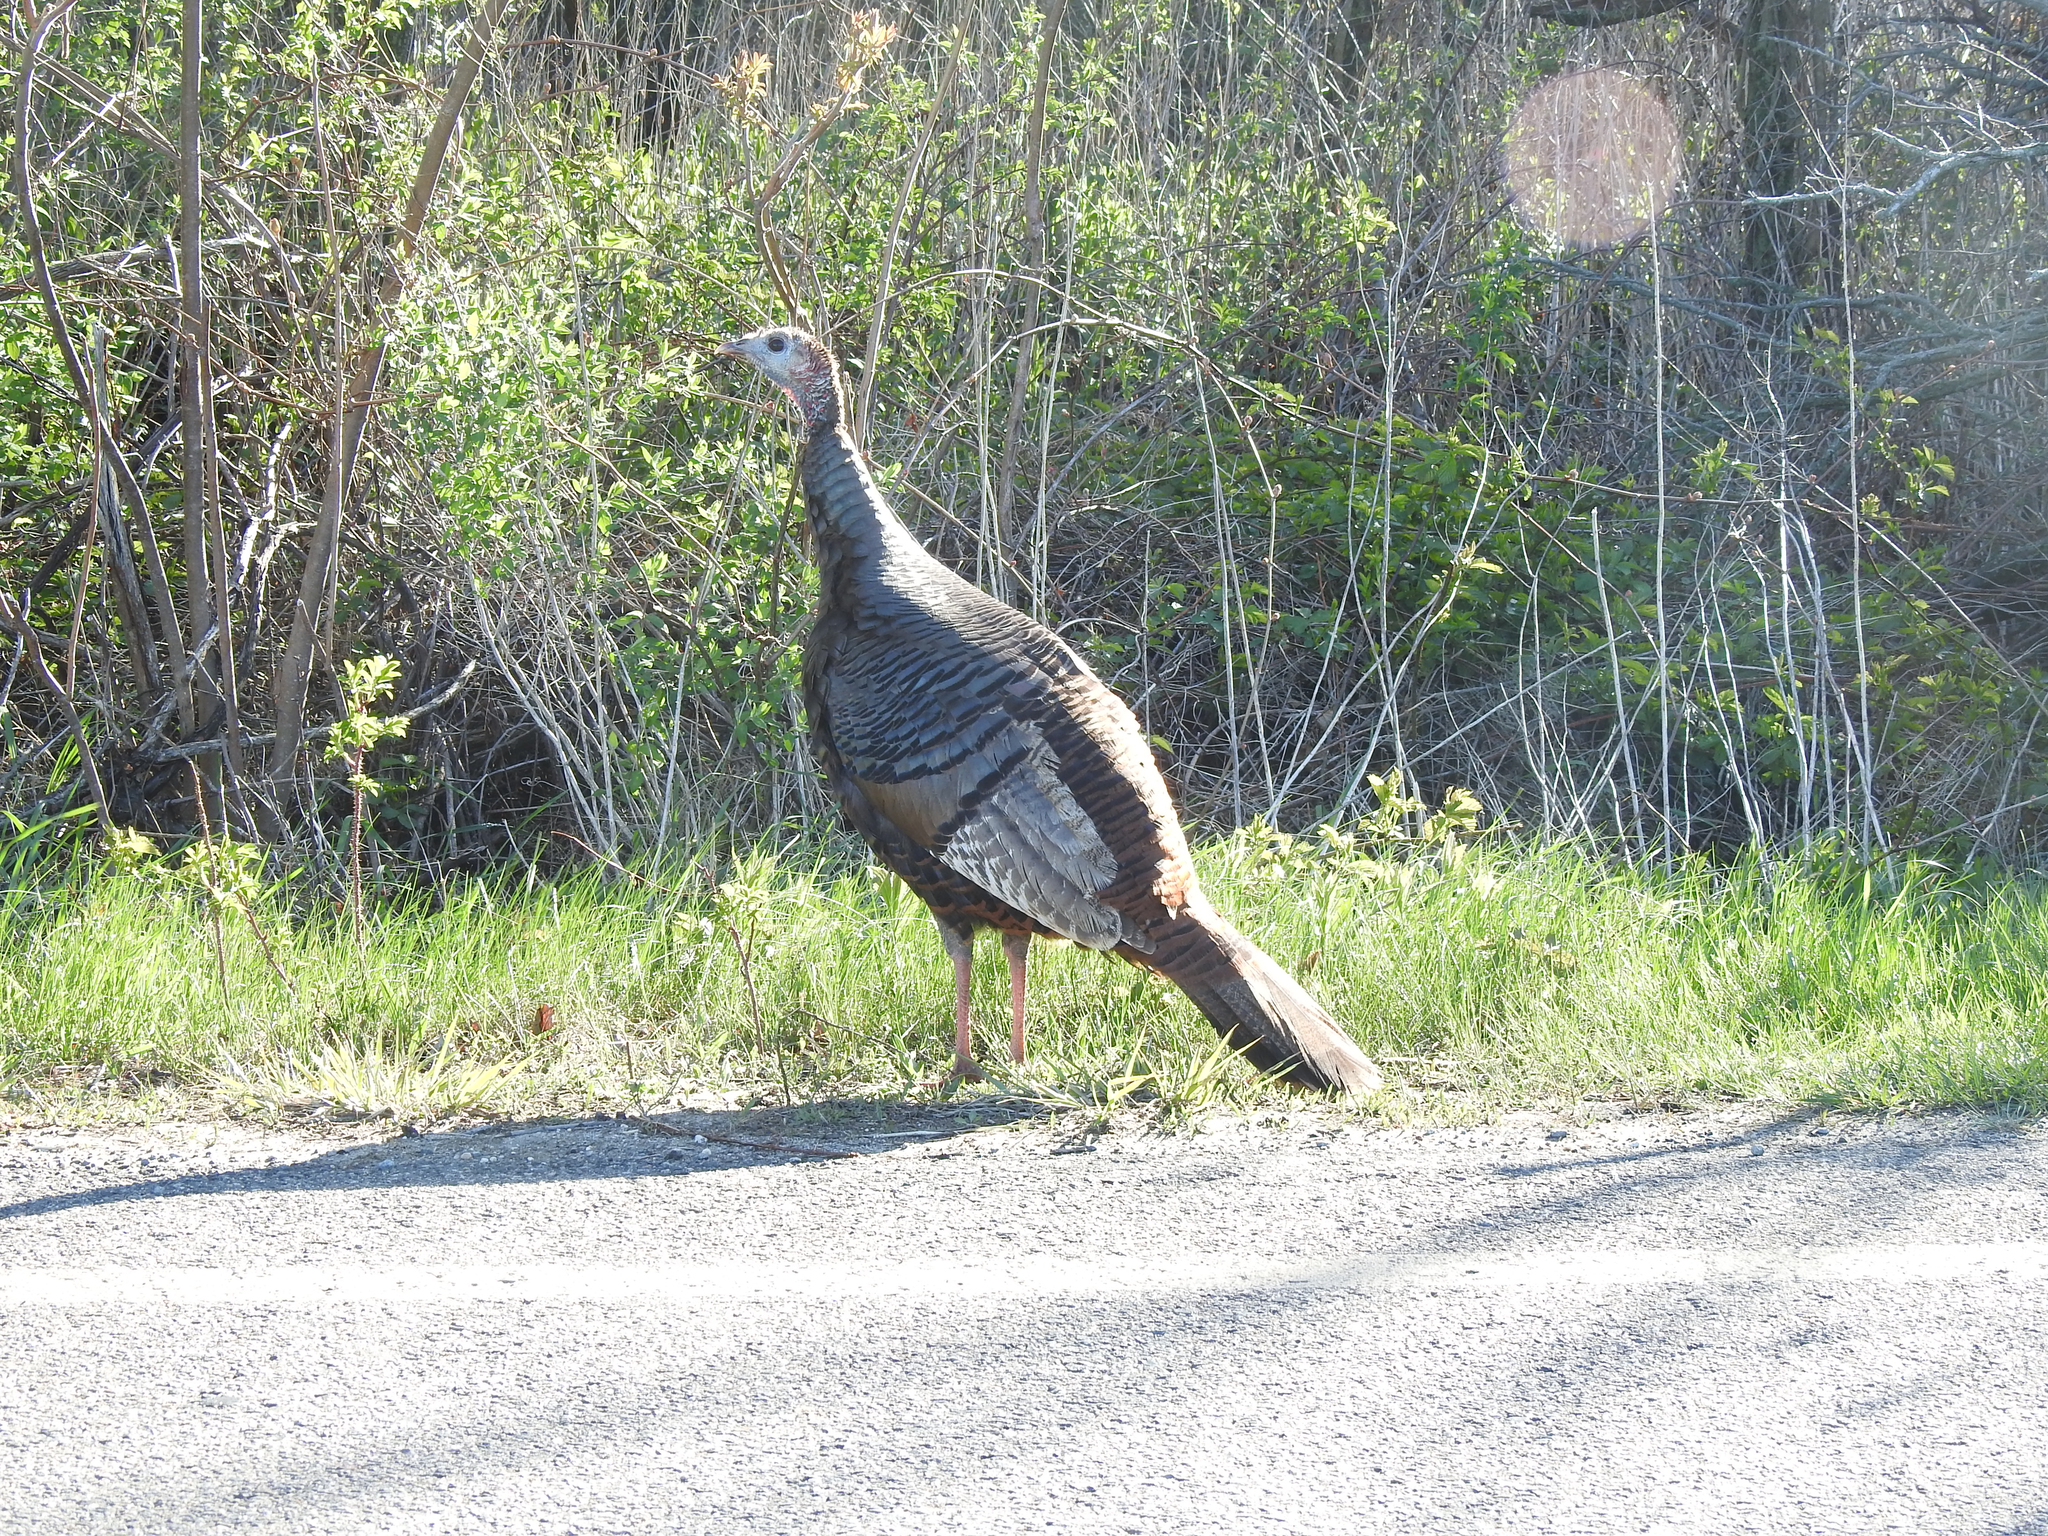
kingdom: Animalia
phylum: Chordata
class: Aves
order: Galliformes
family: Phasianidae
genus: Meleagris
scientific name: Meleagris gallopavo
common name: Wild turkey
